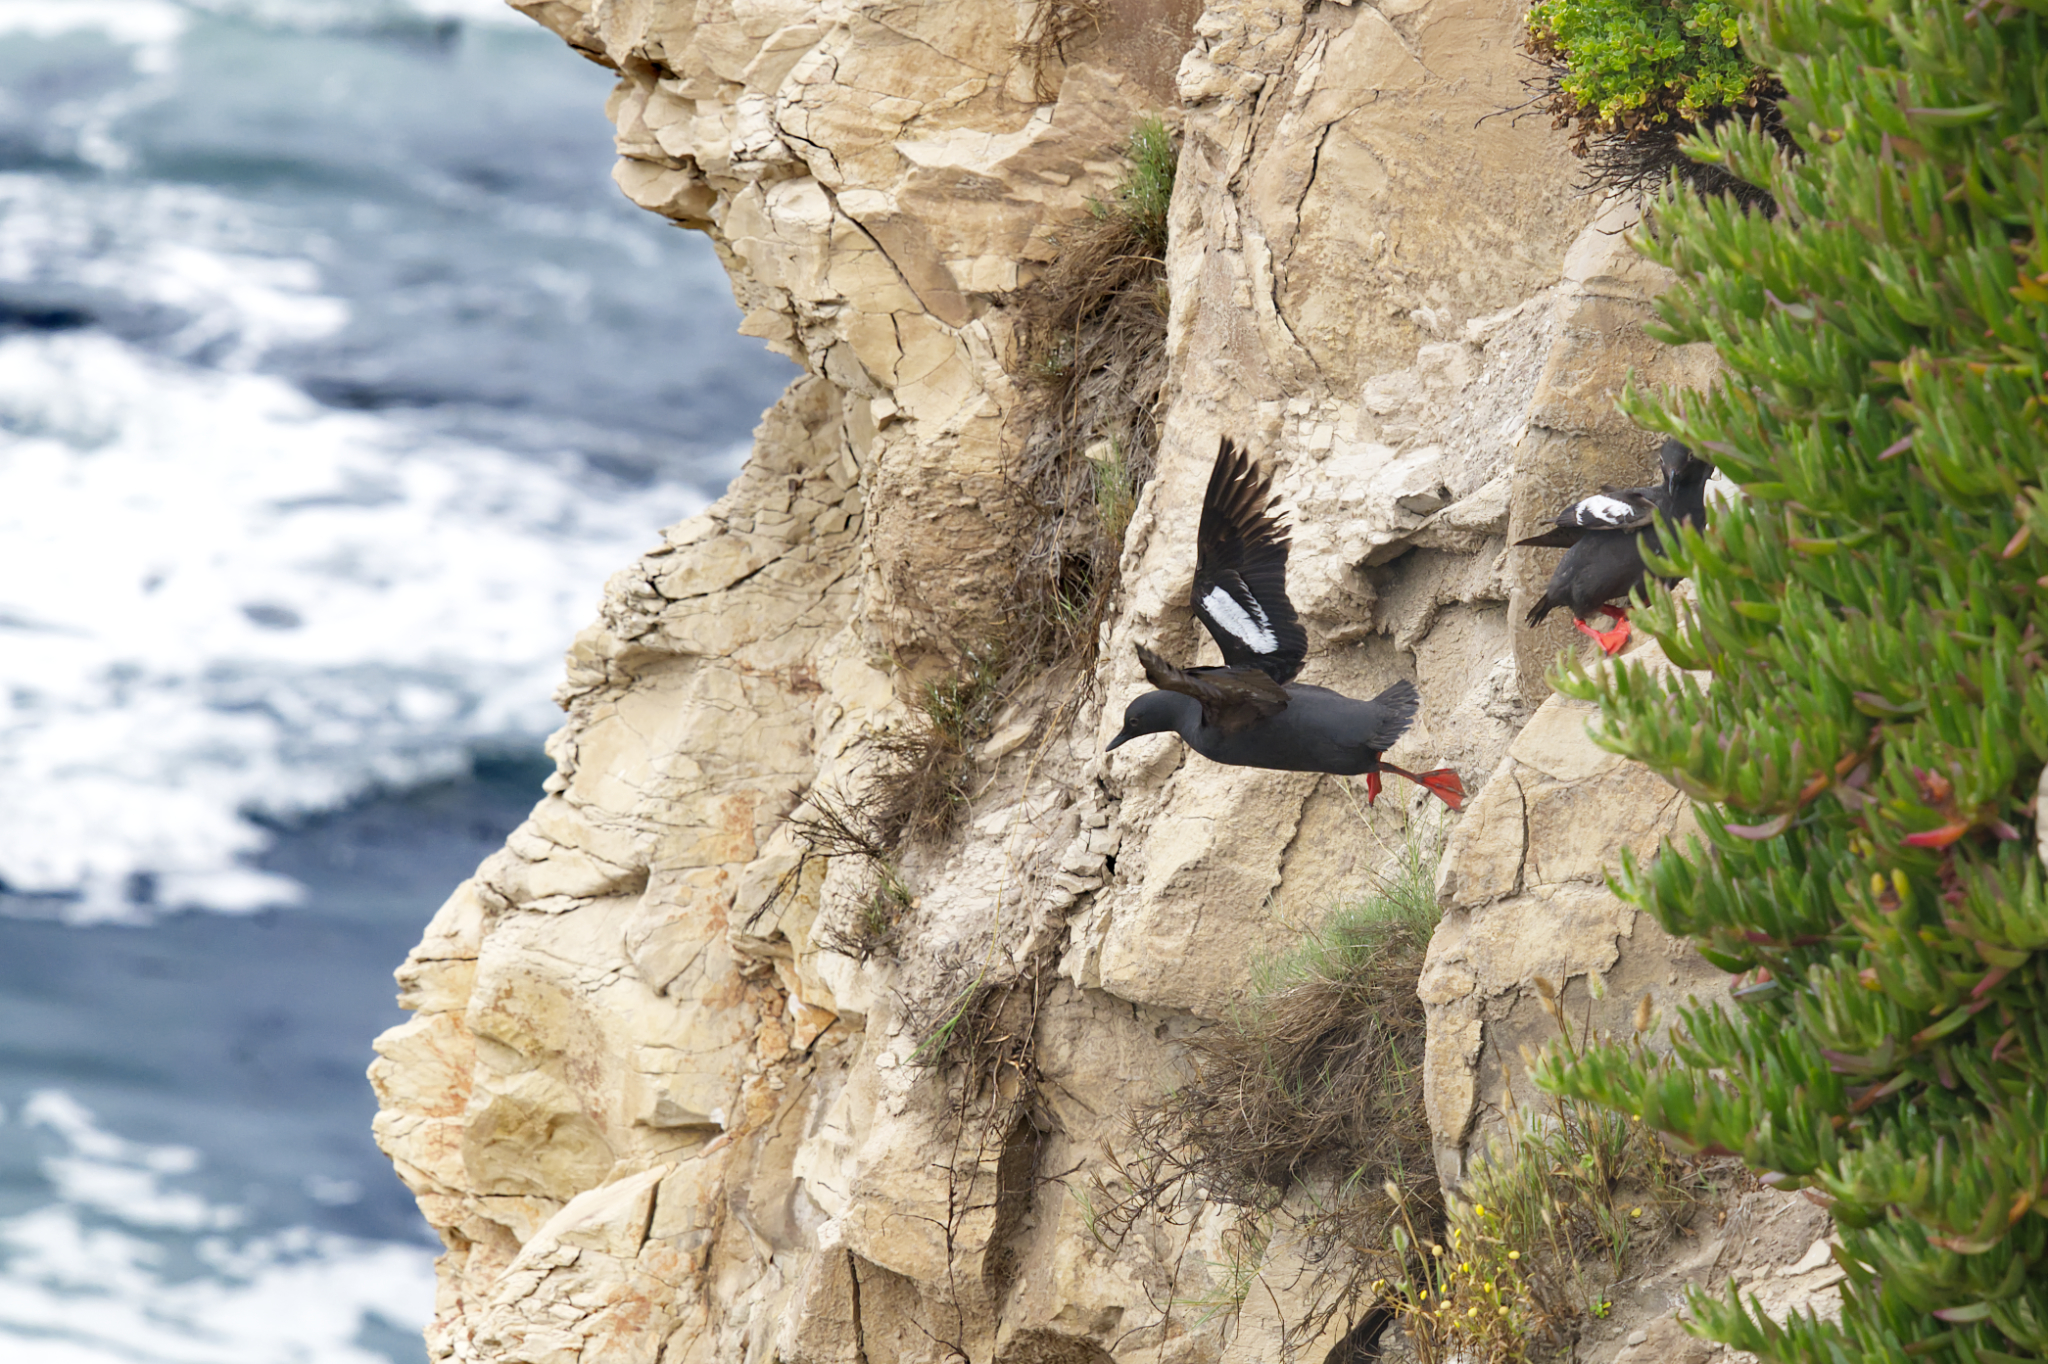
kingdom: Animalia
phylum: Chordata
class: Aves
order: Charadriiformes
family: Alcidae
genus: Cepphus
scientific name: Cepphus columba
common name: Pigeon guillemot
